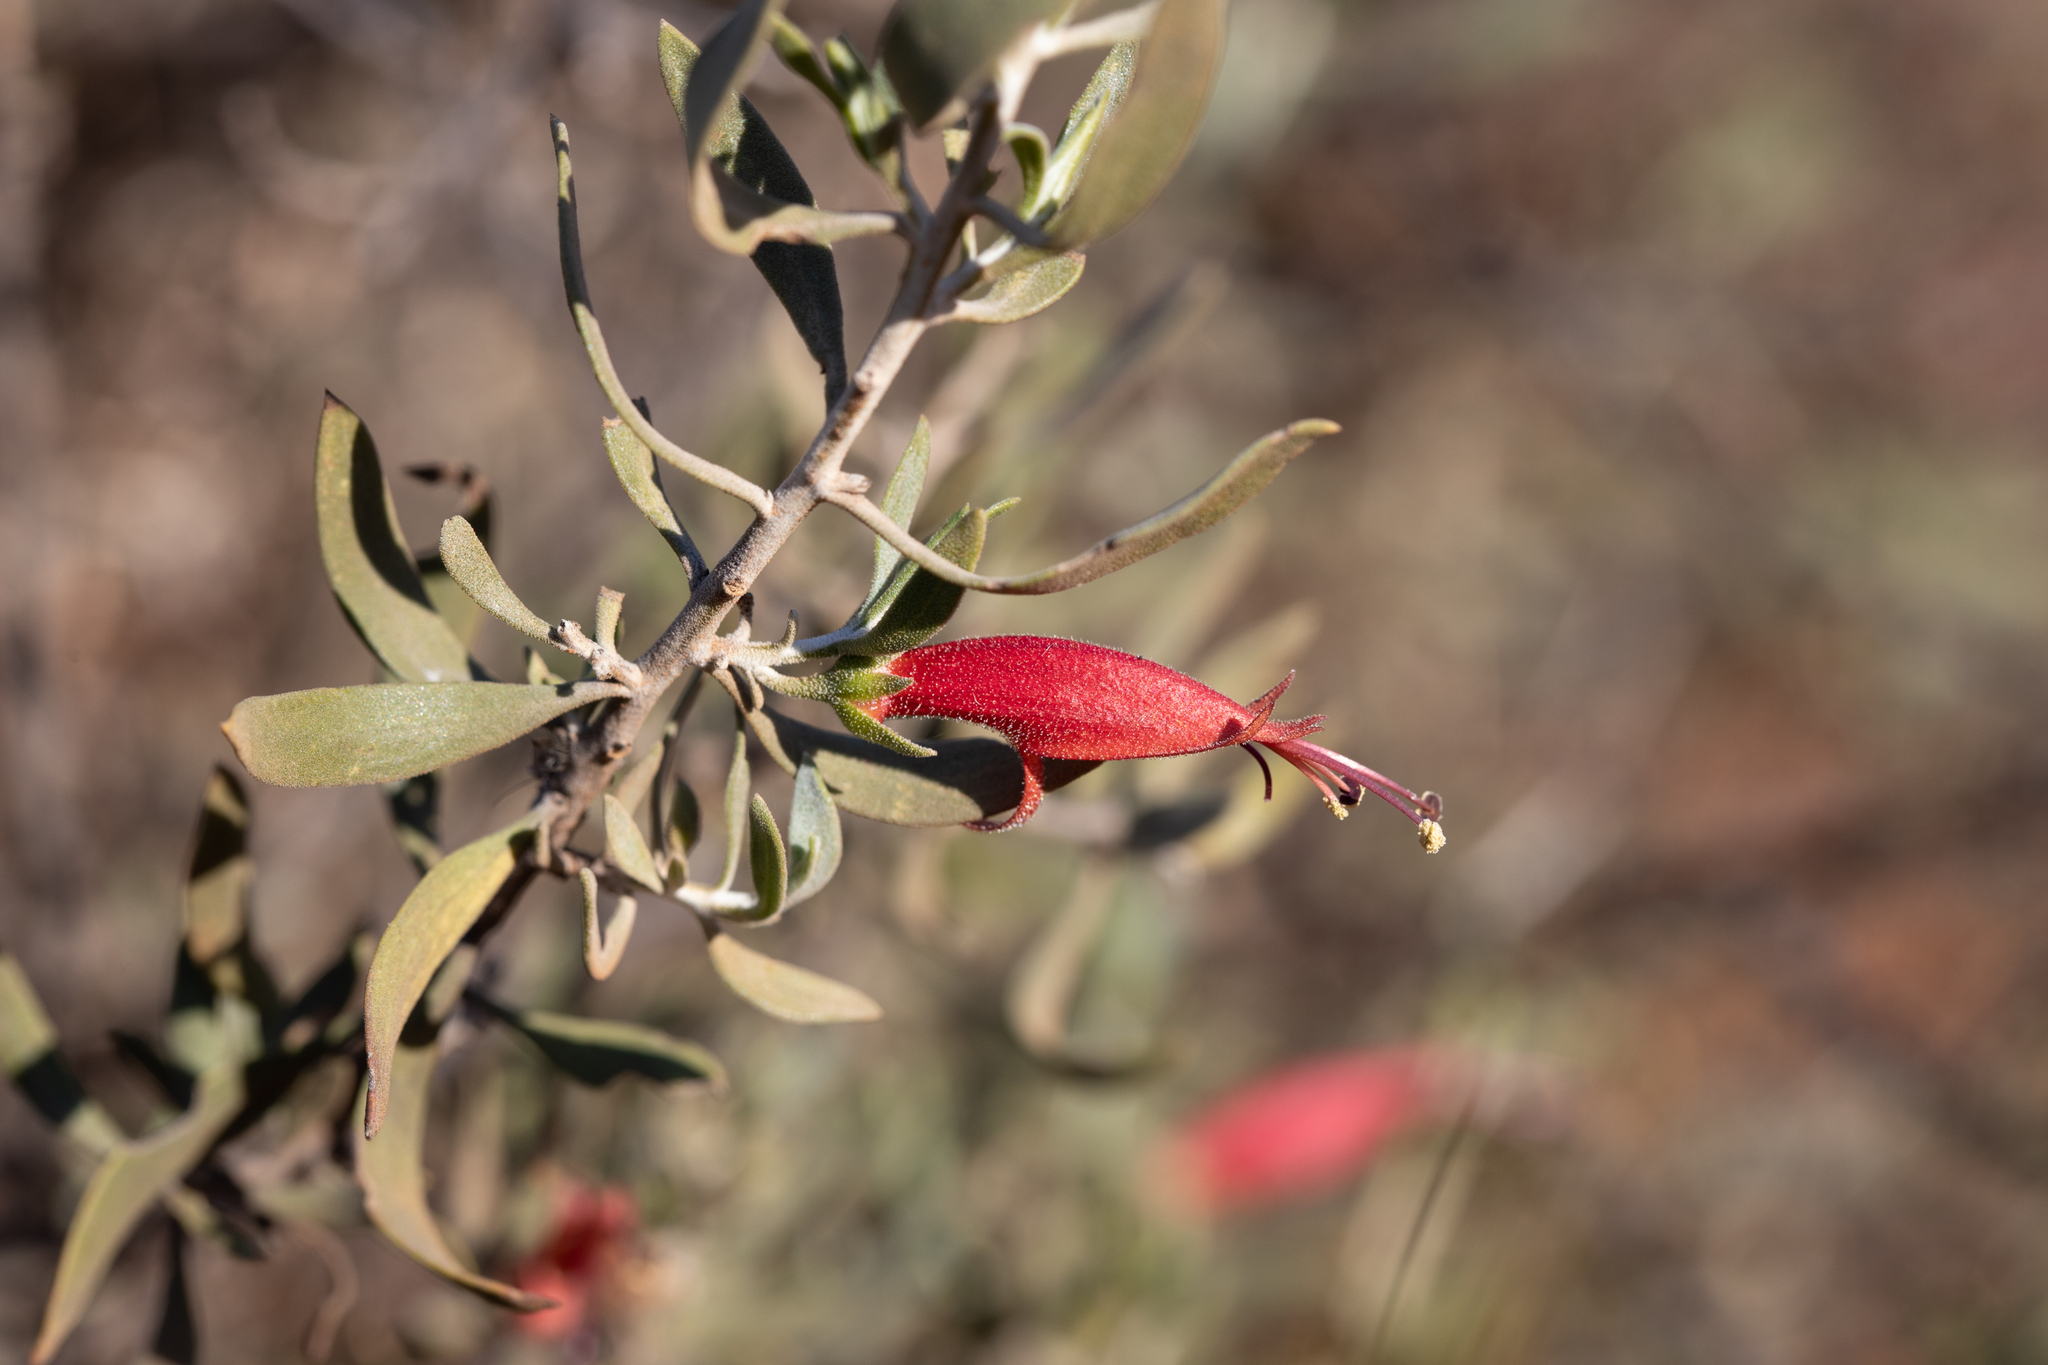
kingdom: Plantae
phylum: Tracheophyta
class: Magnoliopsida
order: Lamiales
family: Scrophulariaceae
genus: Eremophila
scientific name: Eremophila glabra
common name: Black-fuchsia
